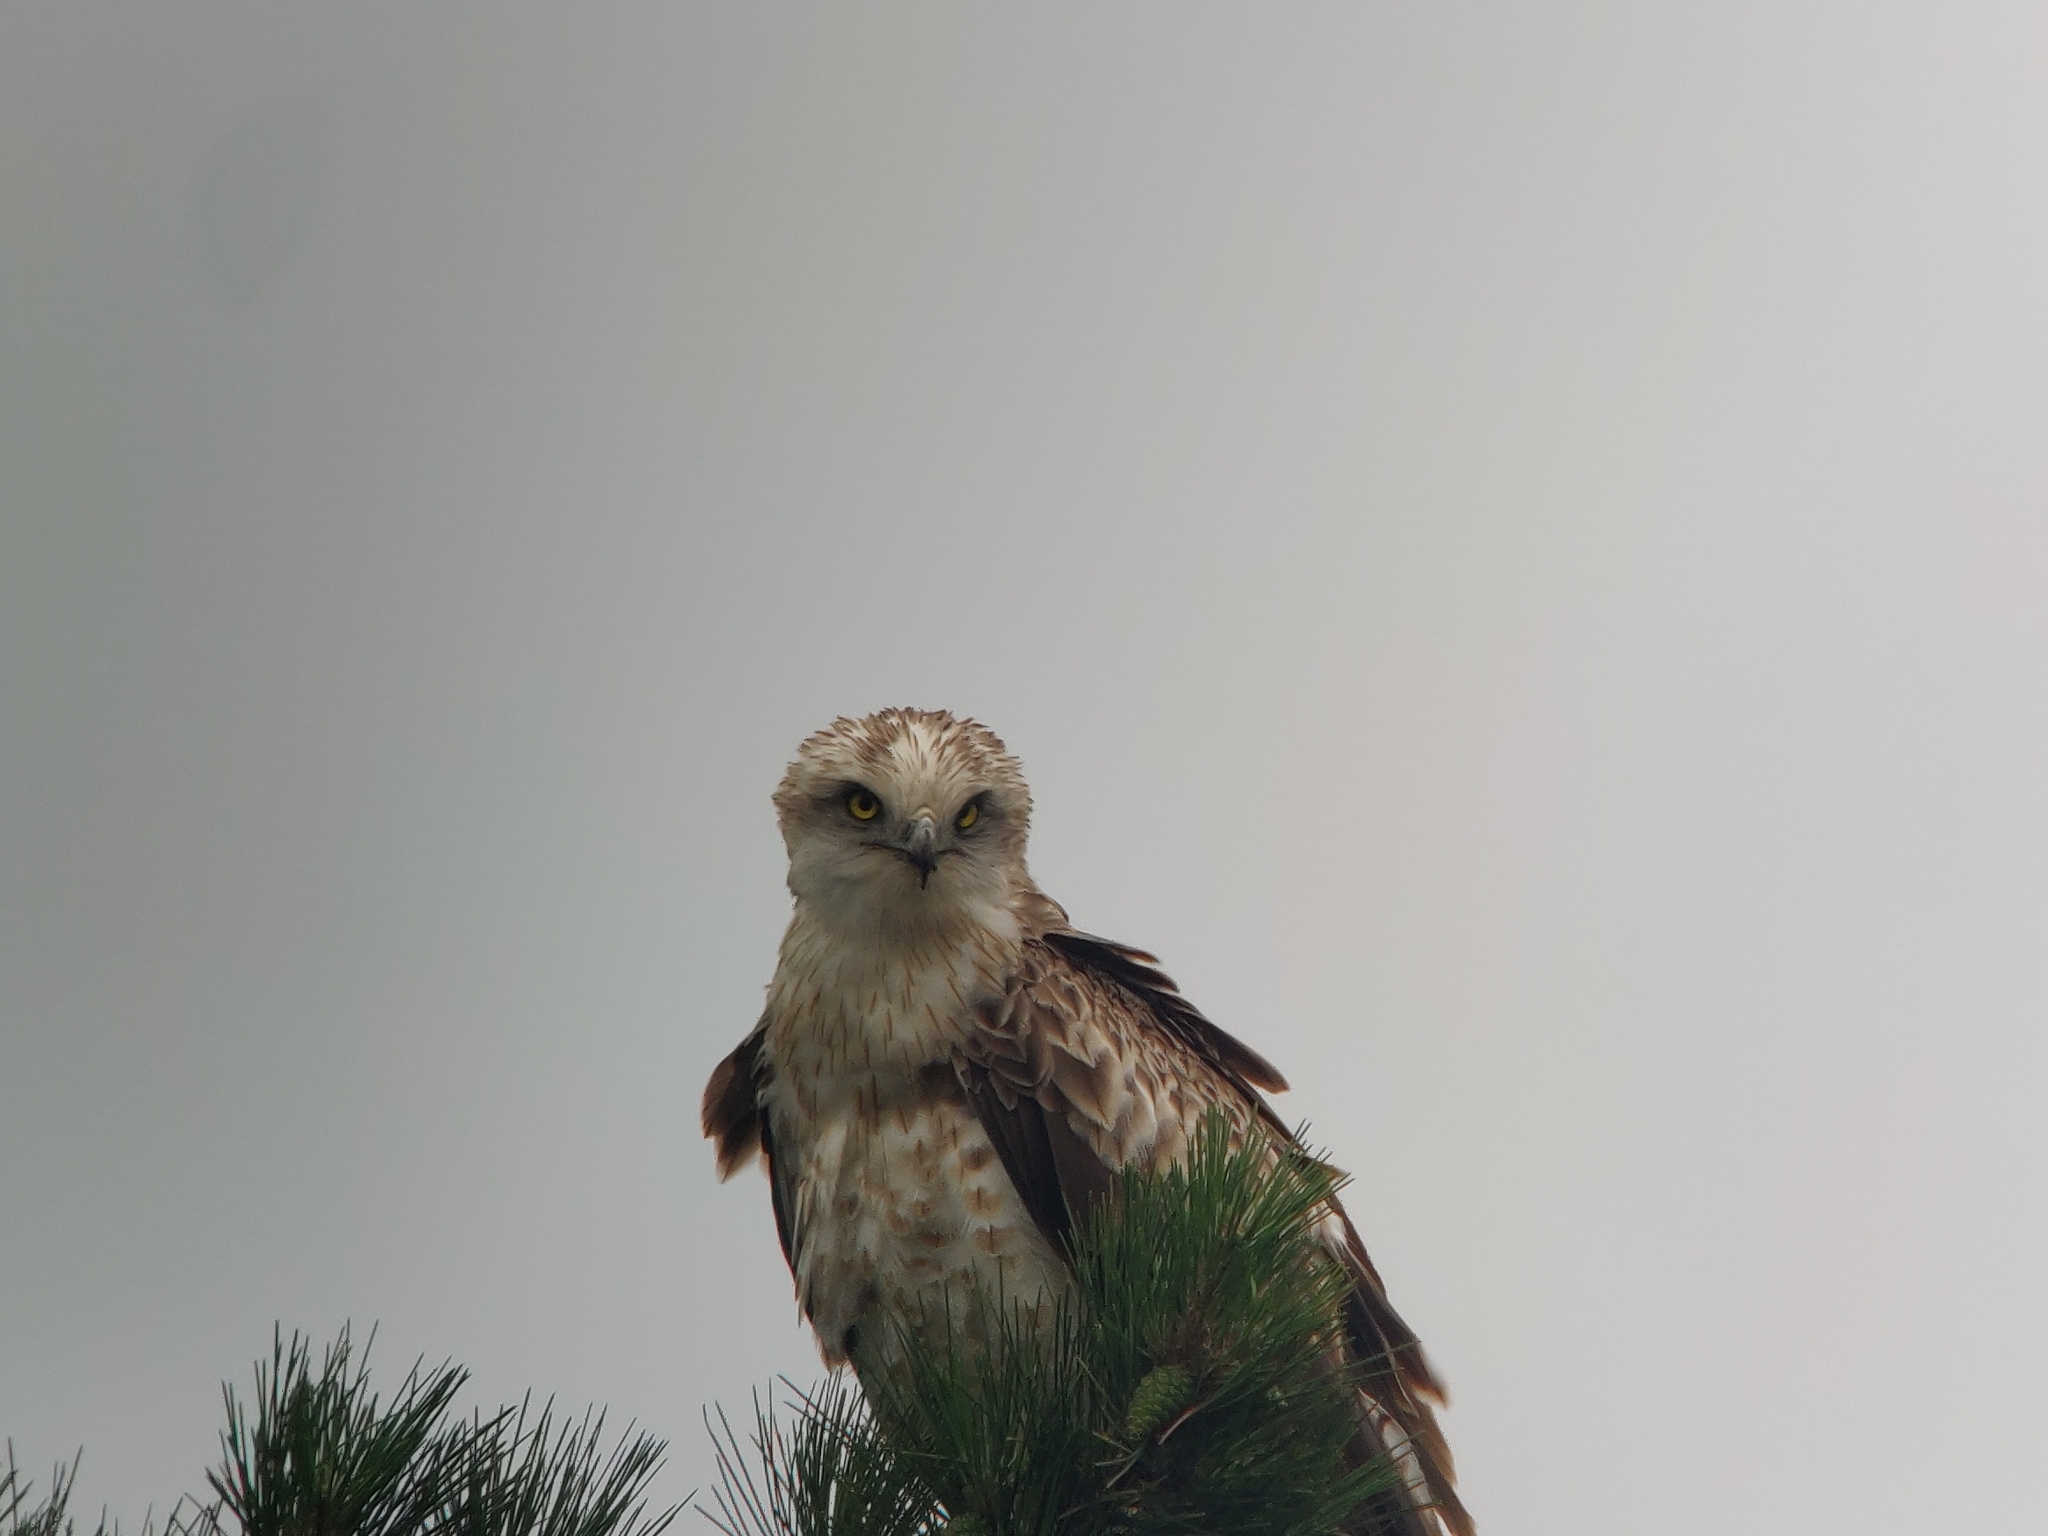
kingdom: Animalia
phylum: Chordata
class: Aves
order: Accipitriformes
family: Accipitridae
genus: Circaetus
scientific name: Circaetus gallicus
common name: Short-toed snake eagle
